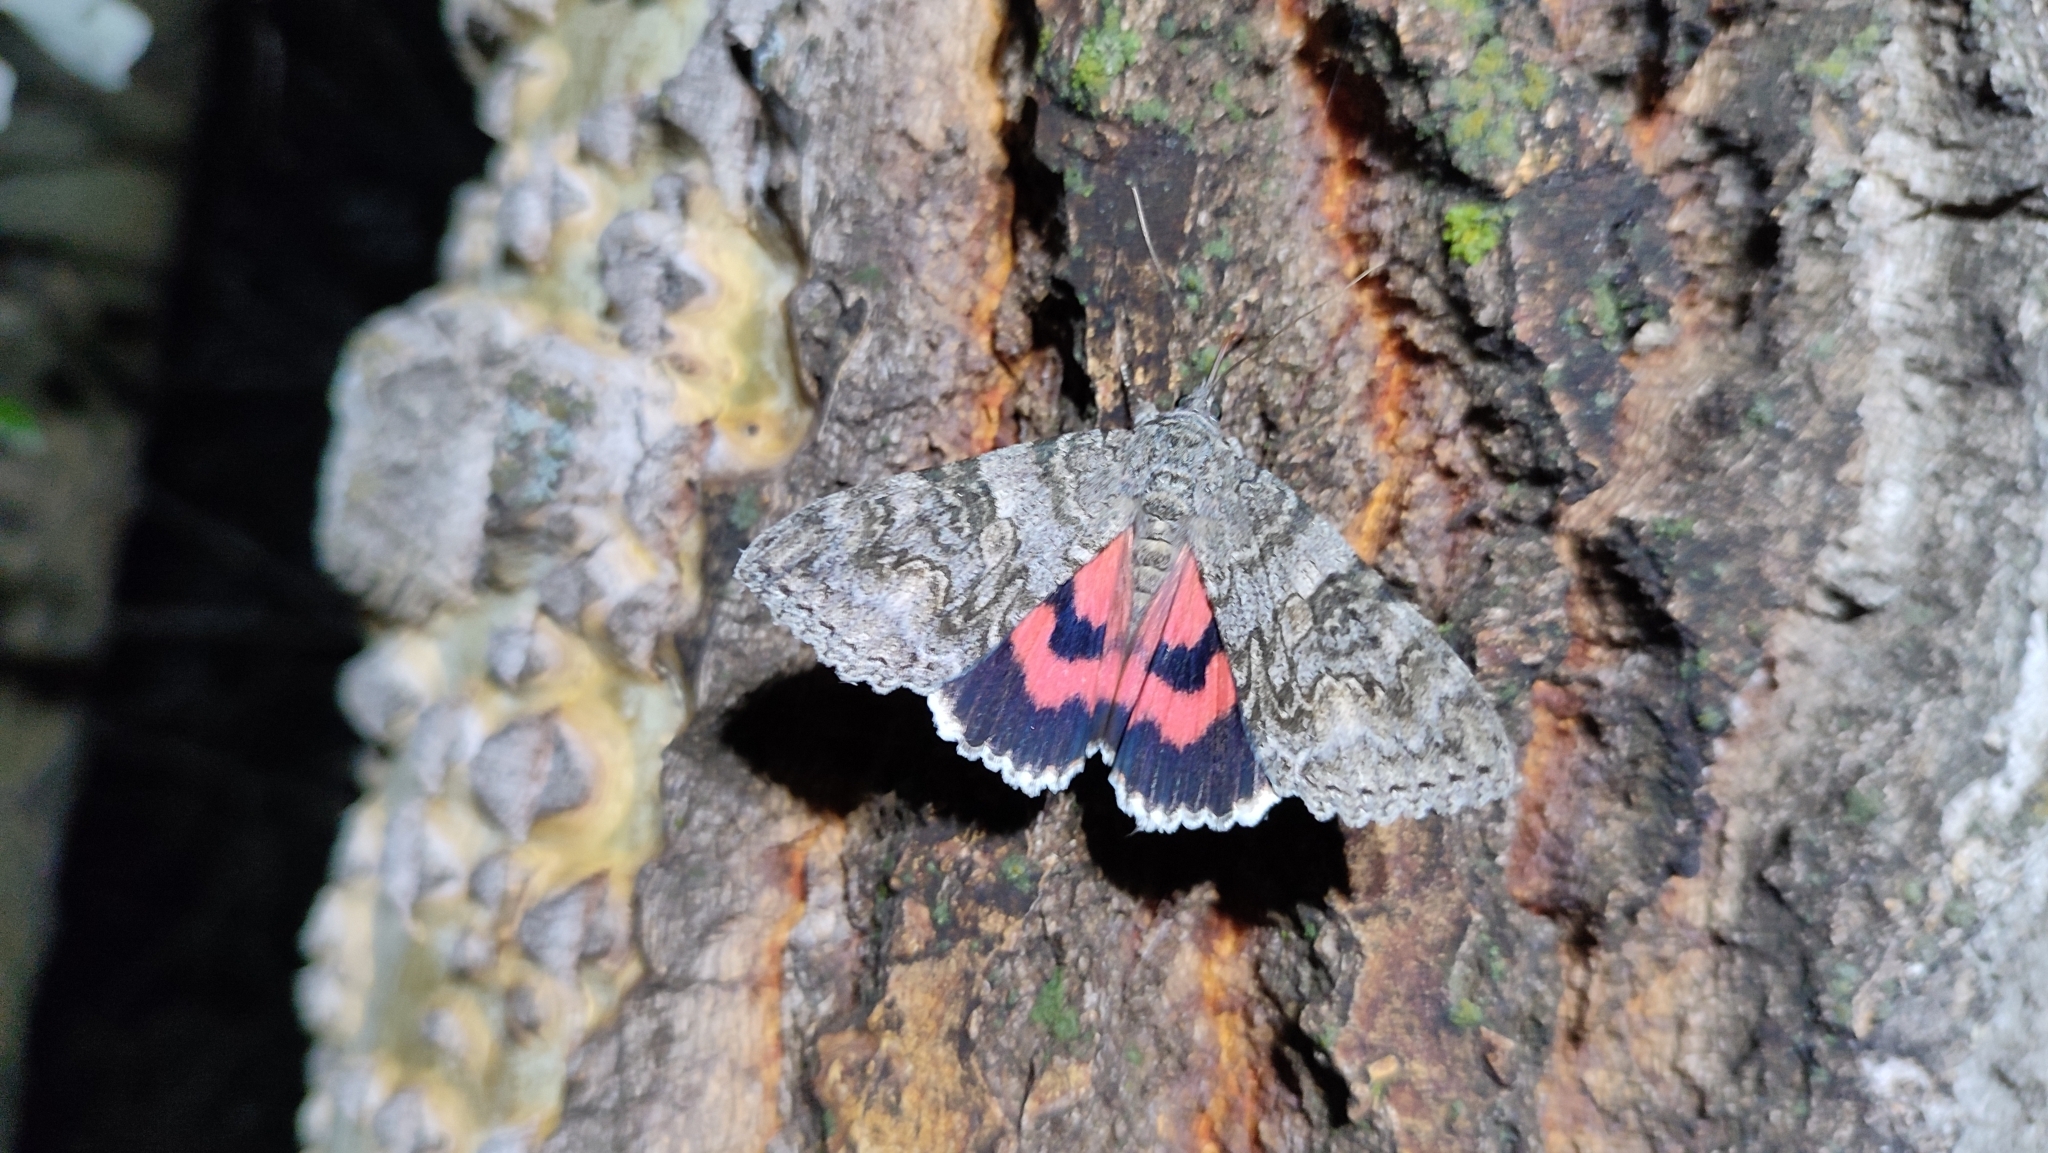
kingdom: Animalia
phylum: Arthropoda
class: Insecta
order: Lepidoptera
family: Erebidae
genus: Catocala
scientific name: Catocala nupta
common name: Red underwing
